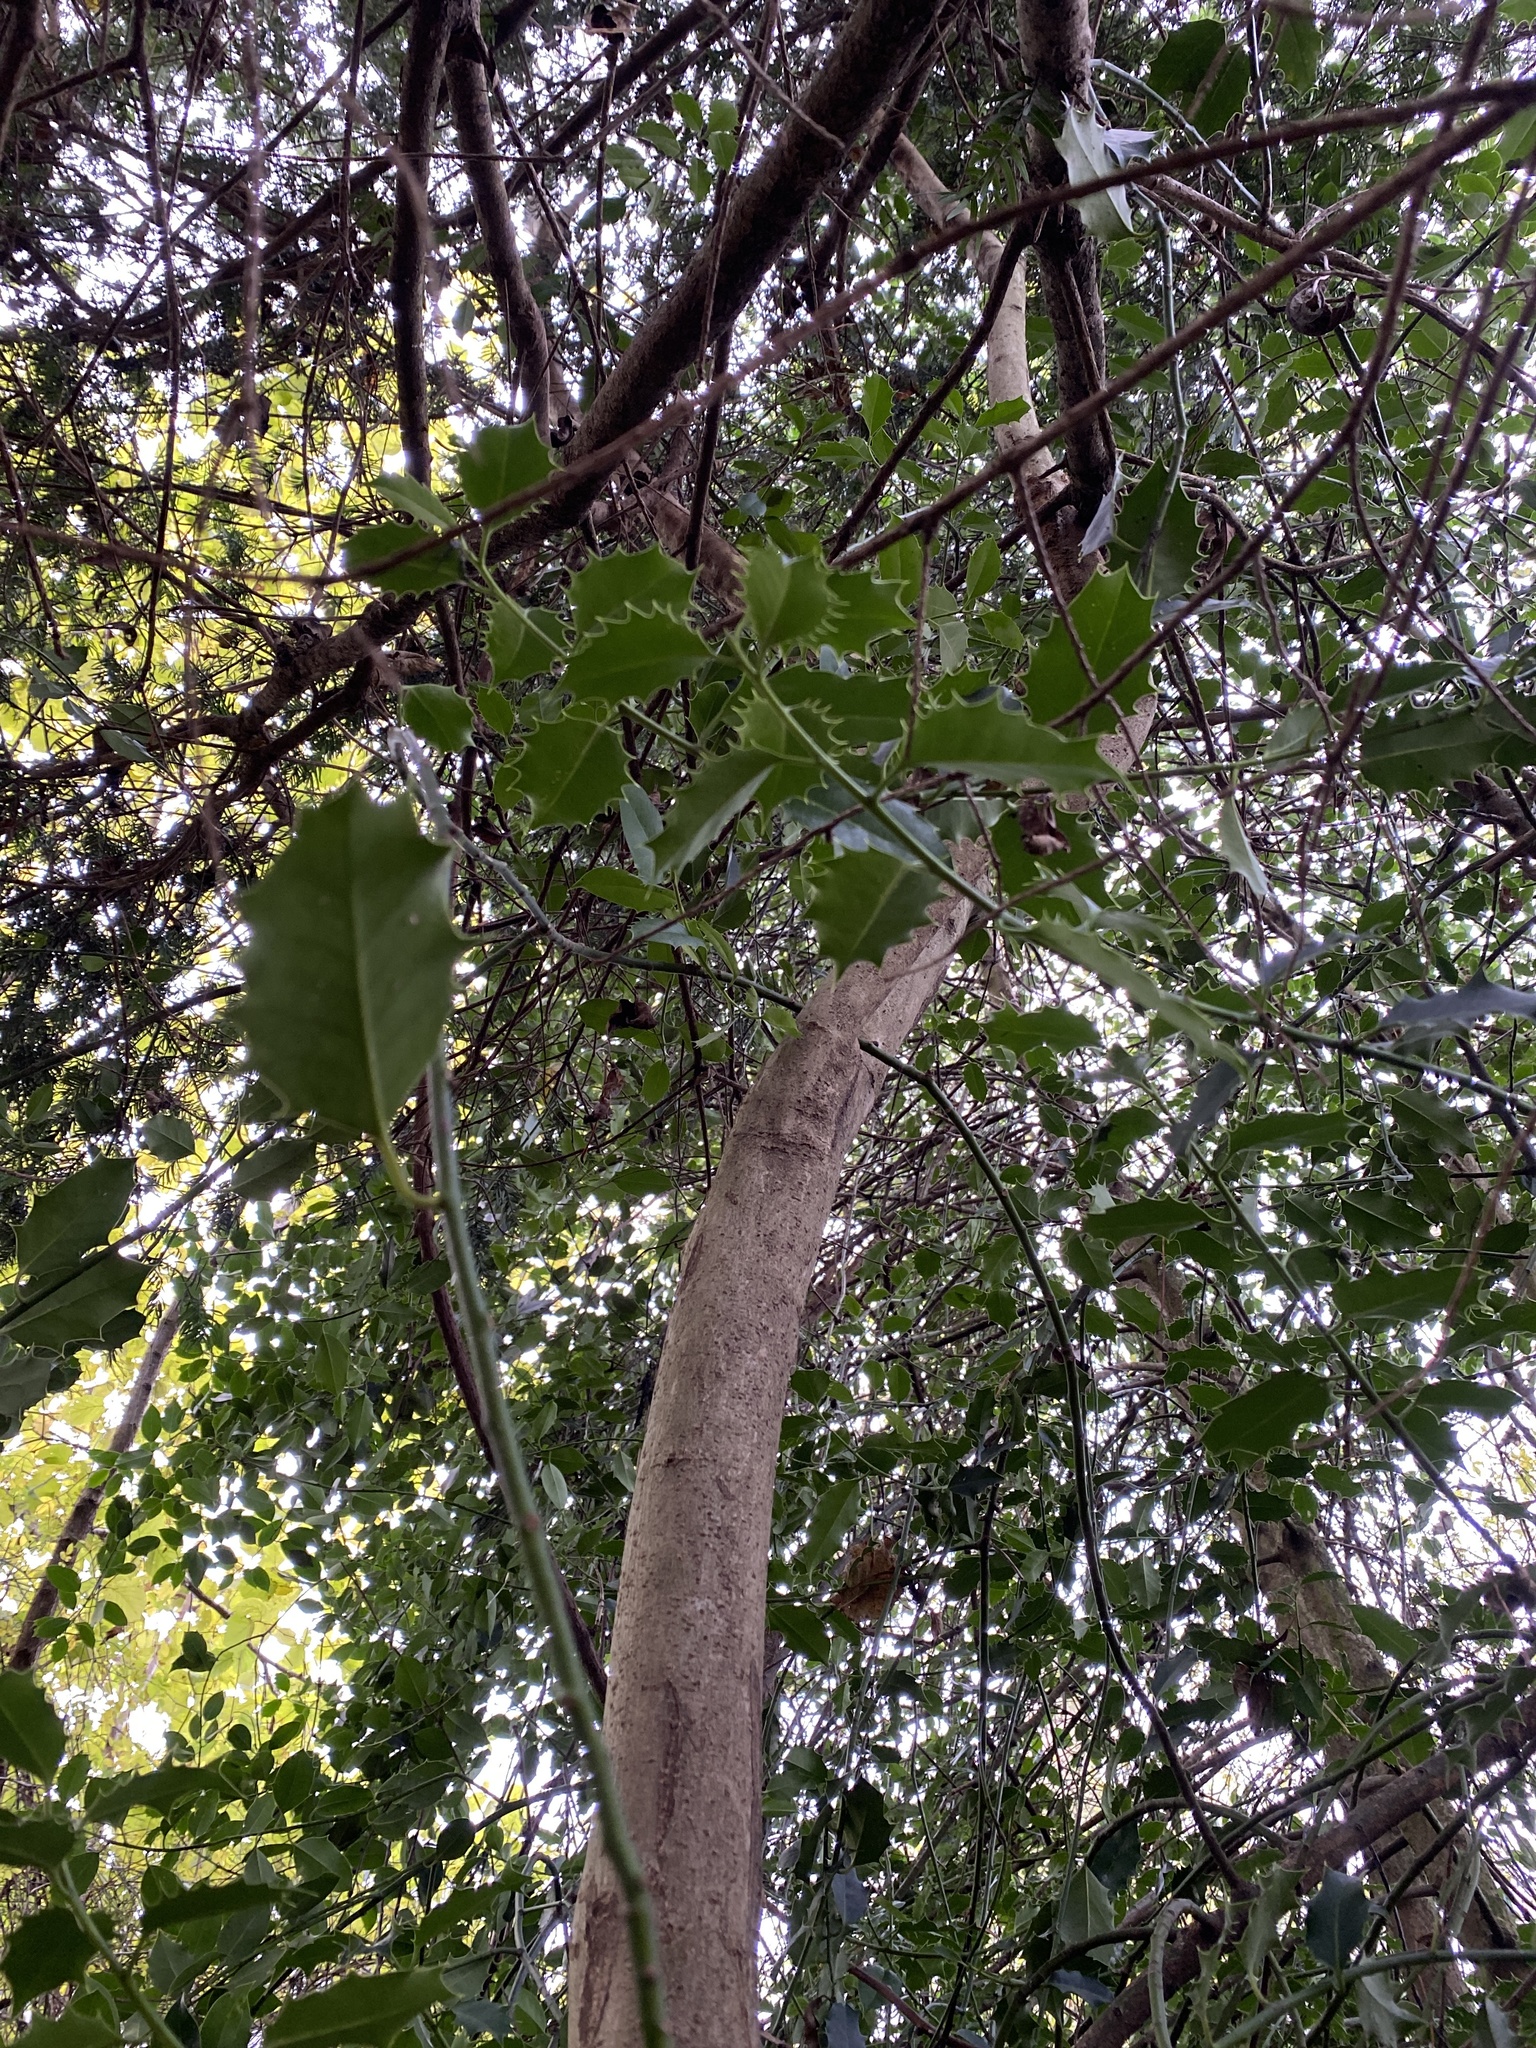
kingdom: Plantae
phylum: Tracheophyta
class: Magnoliopsida
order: Aquifoliales
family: Aquifoliaceae
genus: Ilex
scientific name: Ilex aquifolium
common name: English holly
